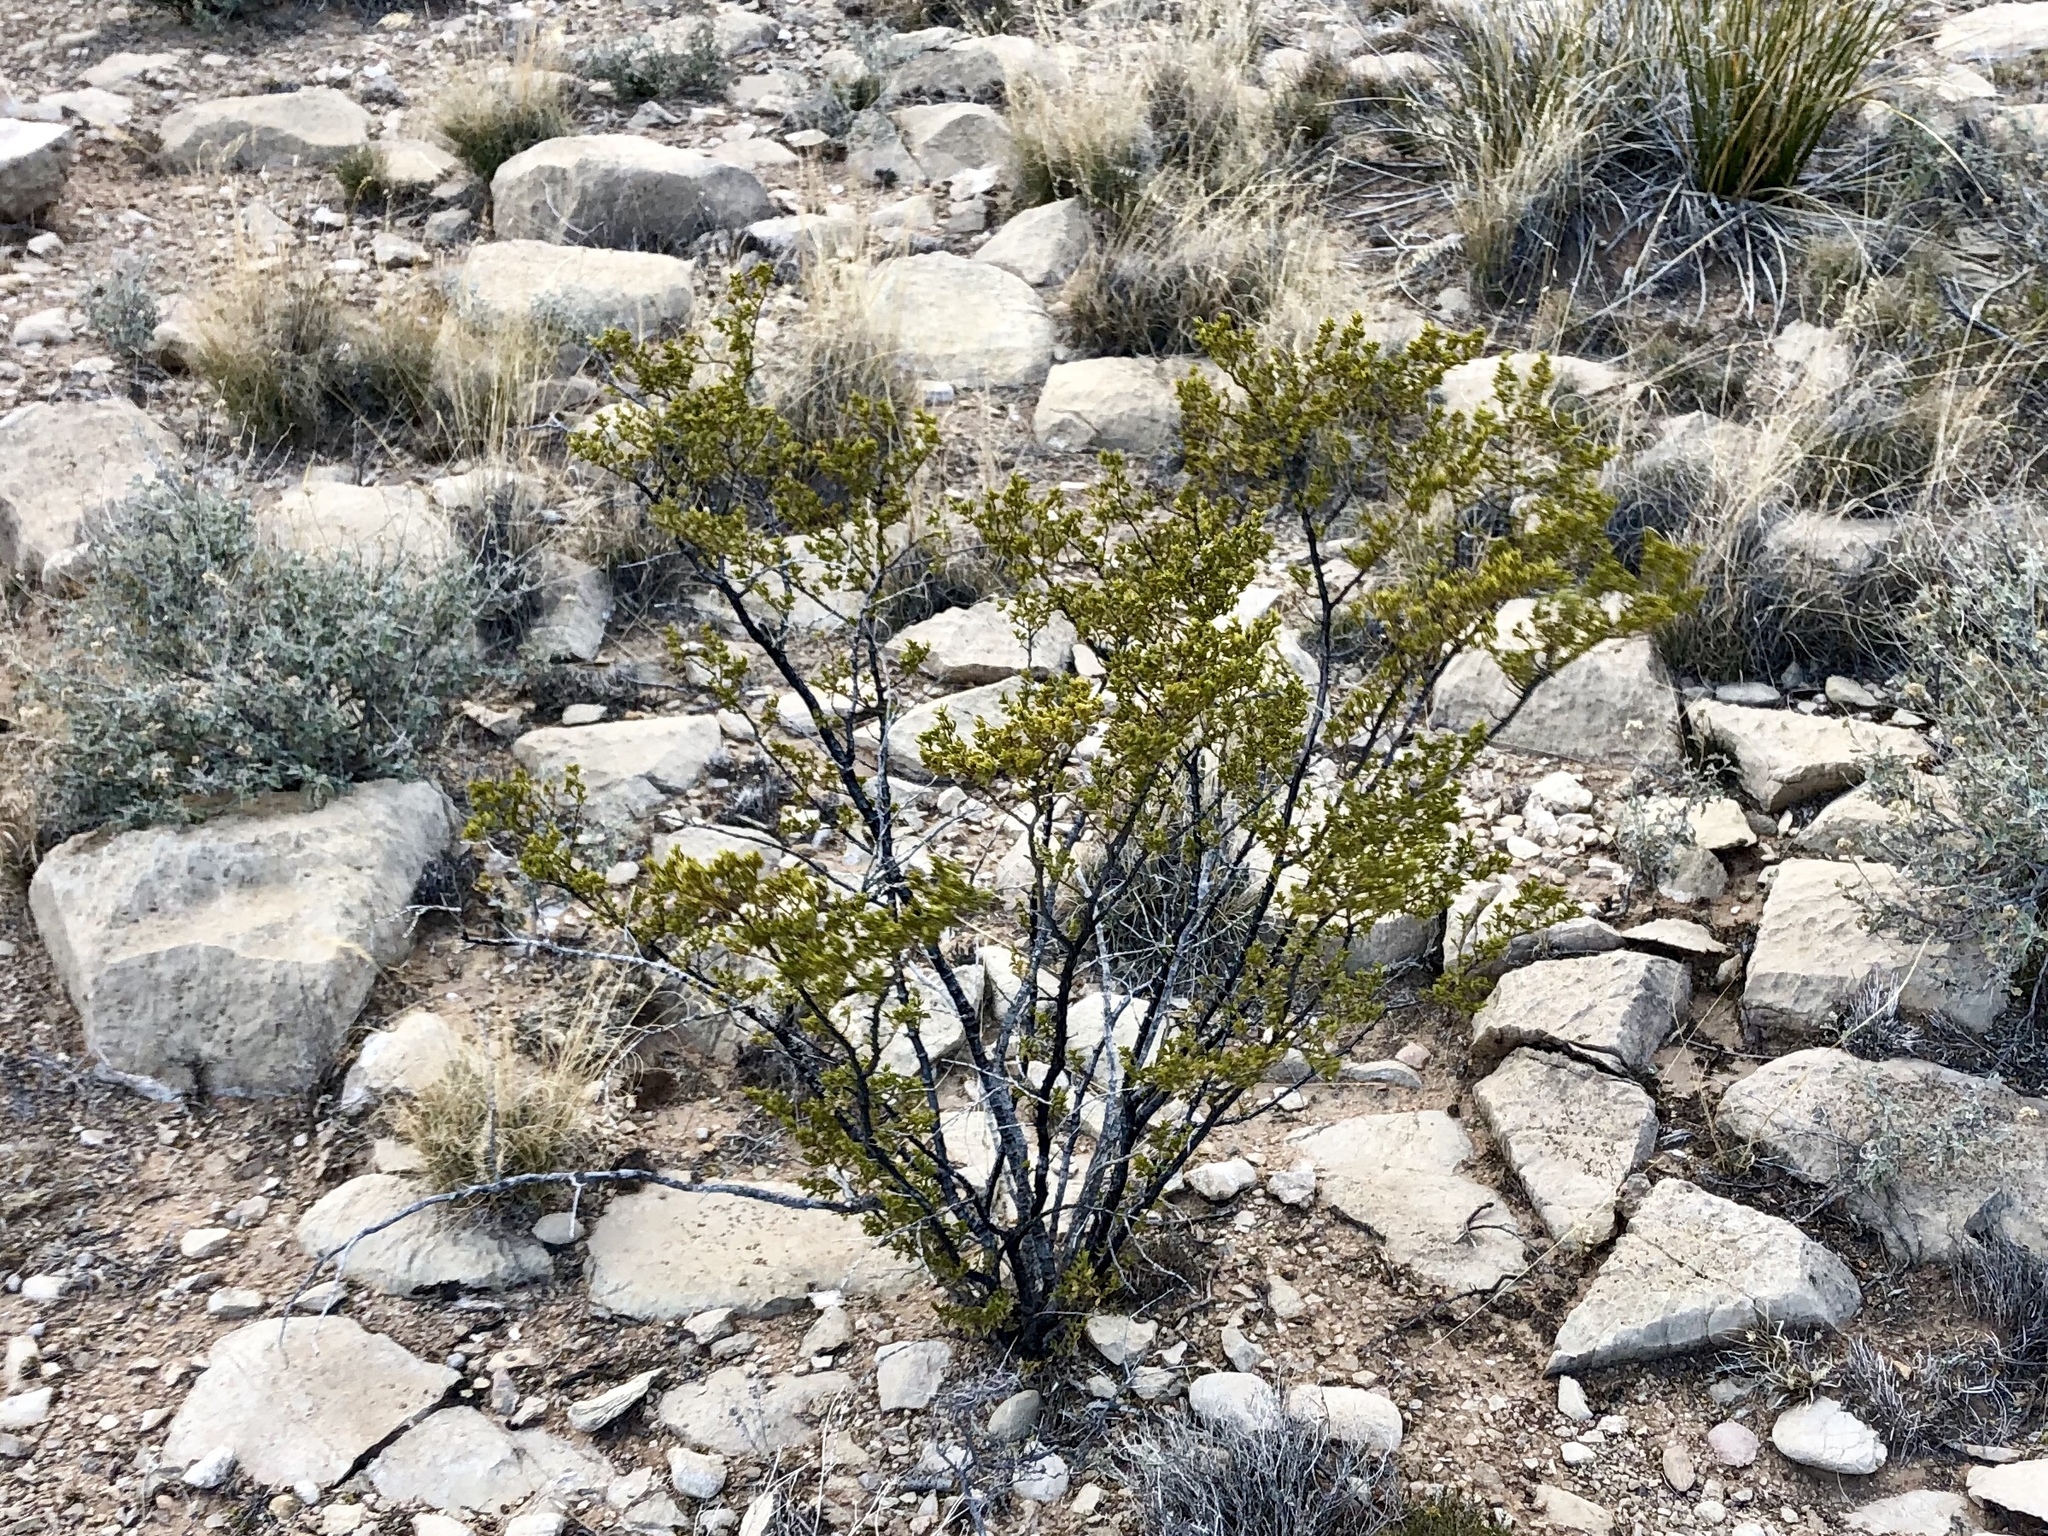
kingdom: Plantae
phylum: Tracheophyta
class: Magnoliopsida
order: Zygophyllales
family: Zygophyllaceae
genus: Larrea
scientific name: Larrea tridentata
